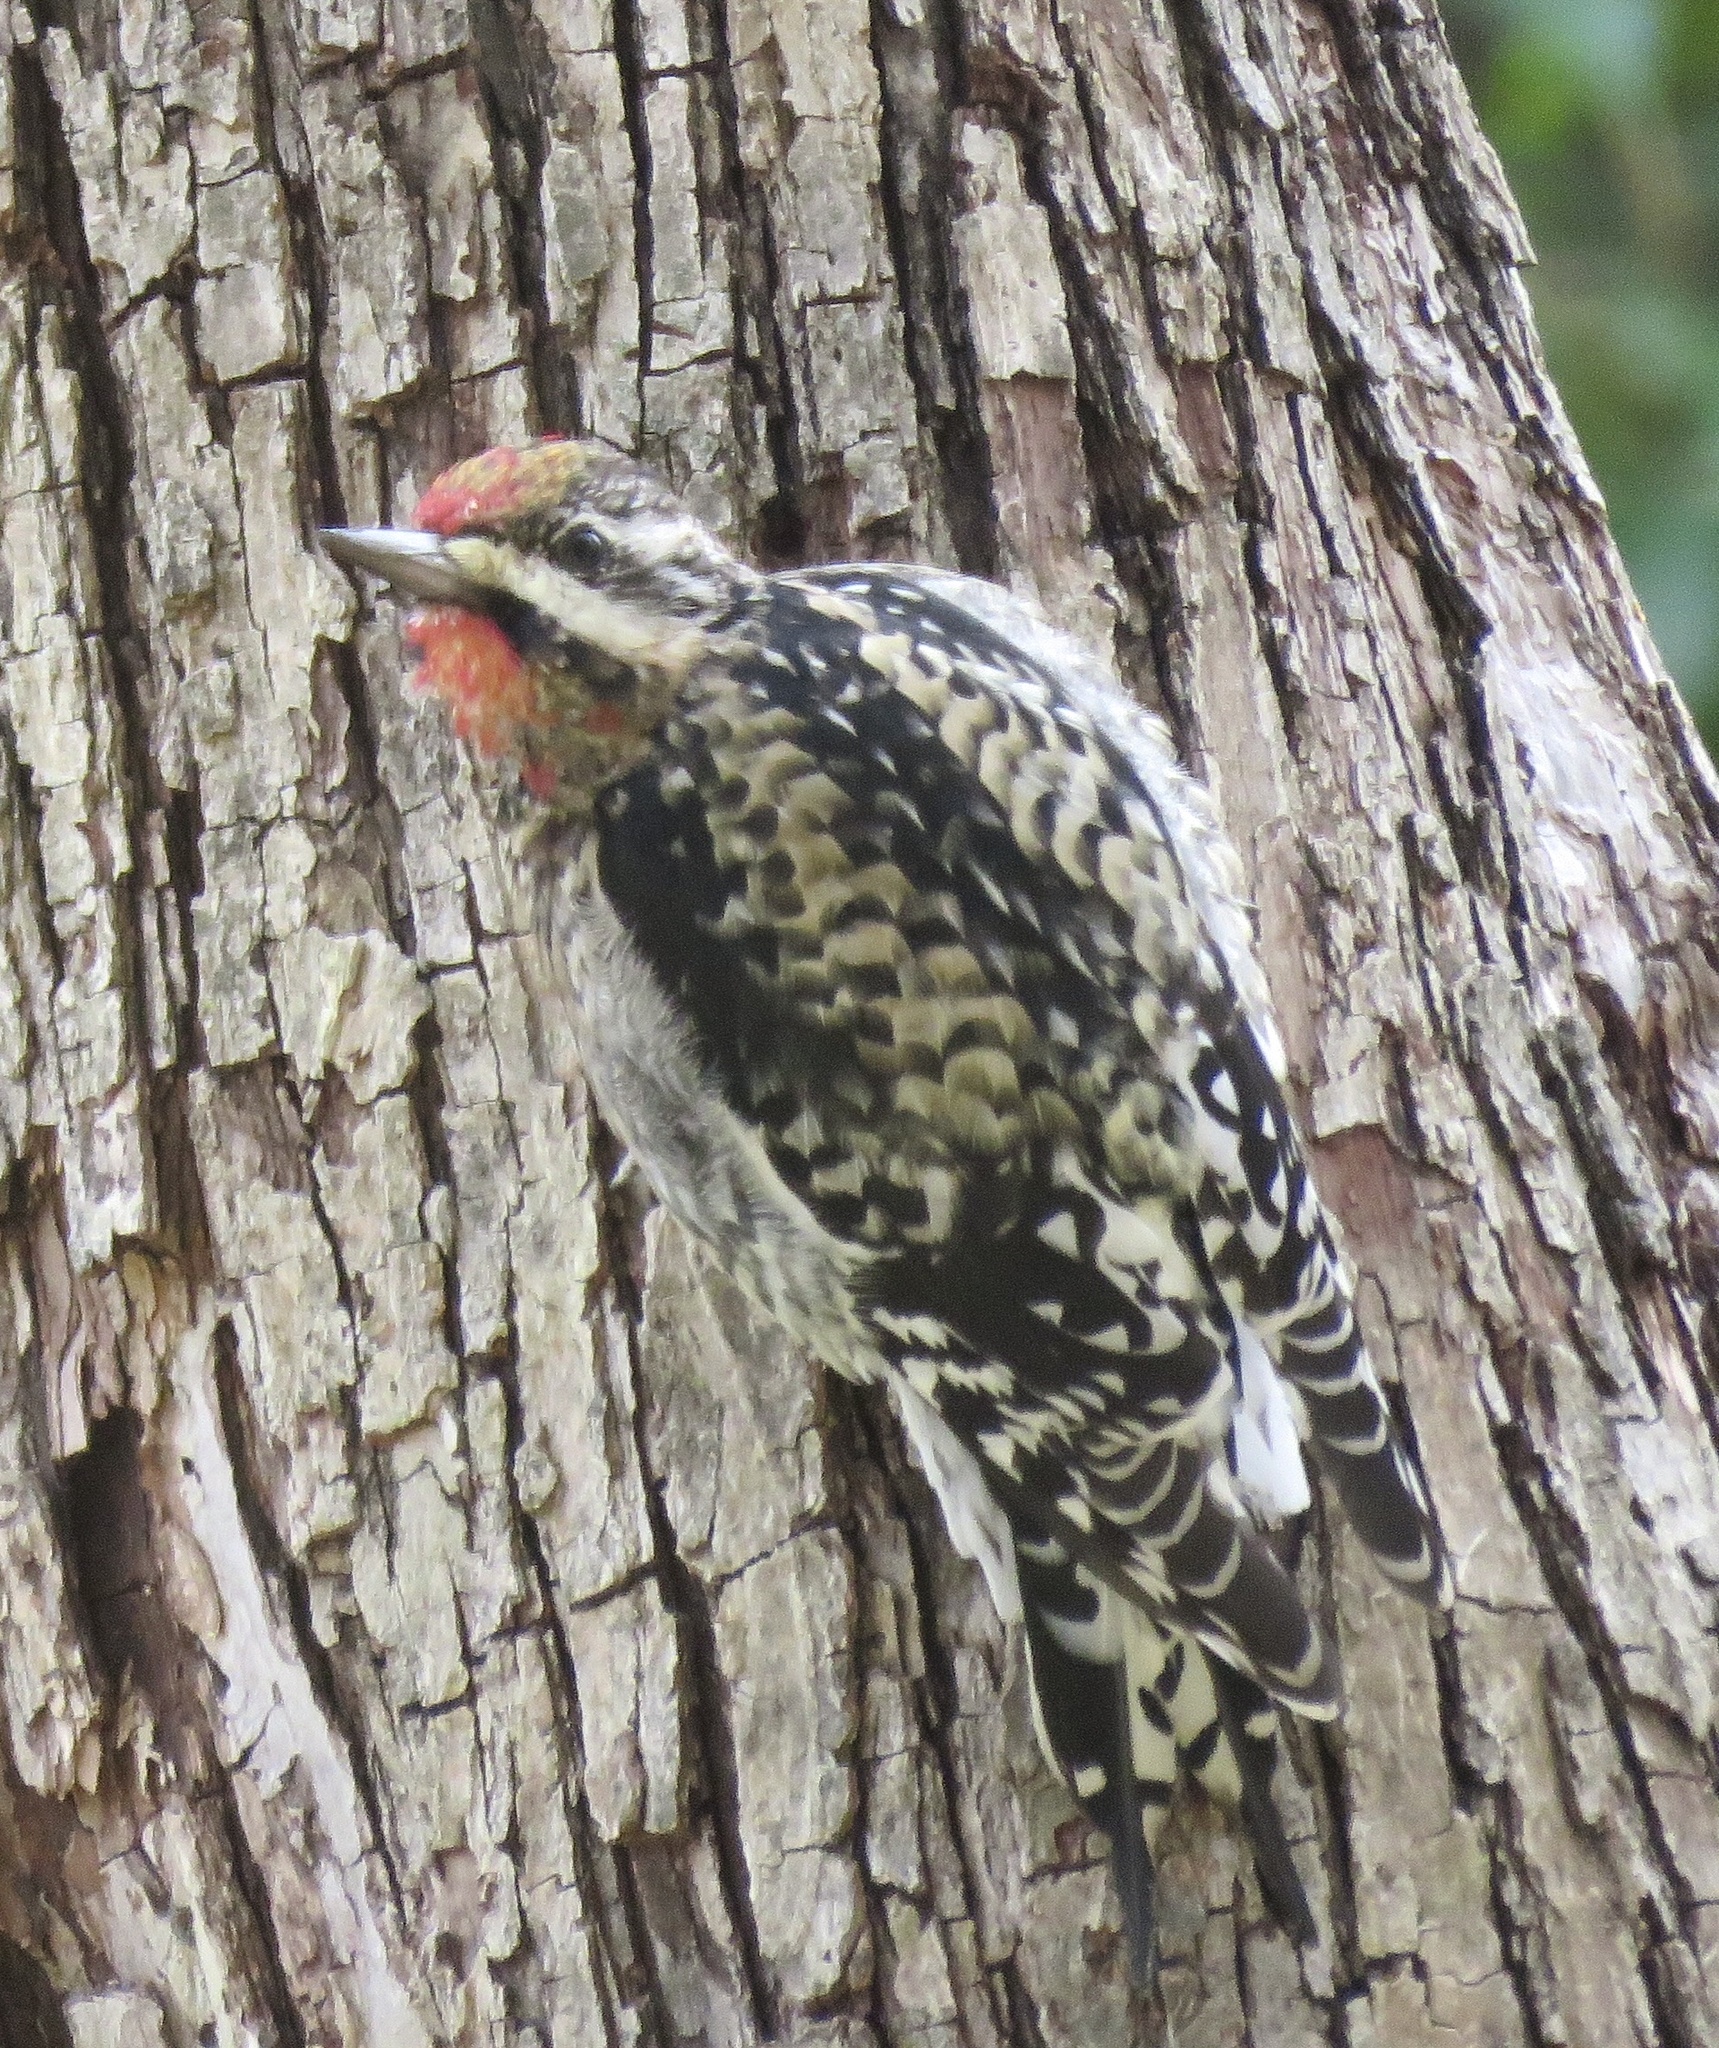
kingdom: Animalia
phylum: Chordata
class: Aves
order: Piciformes
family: Picidae
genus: Sphyrapicus
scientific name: Sphyrapicus varius
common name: Yellow-bellied sapsucker
